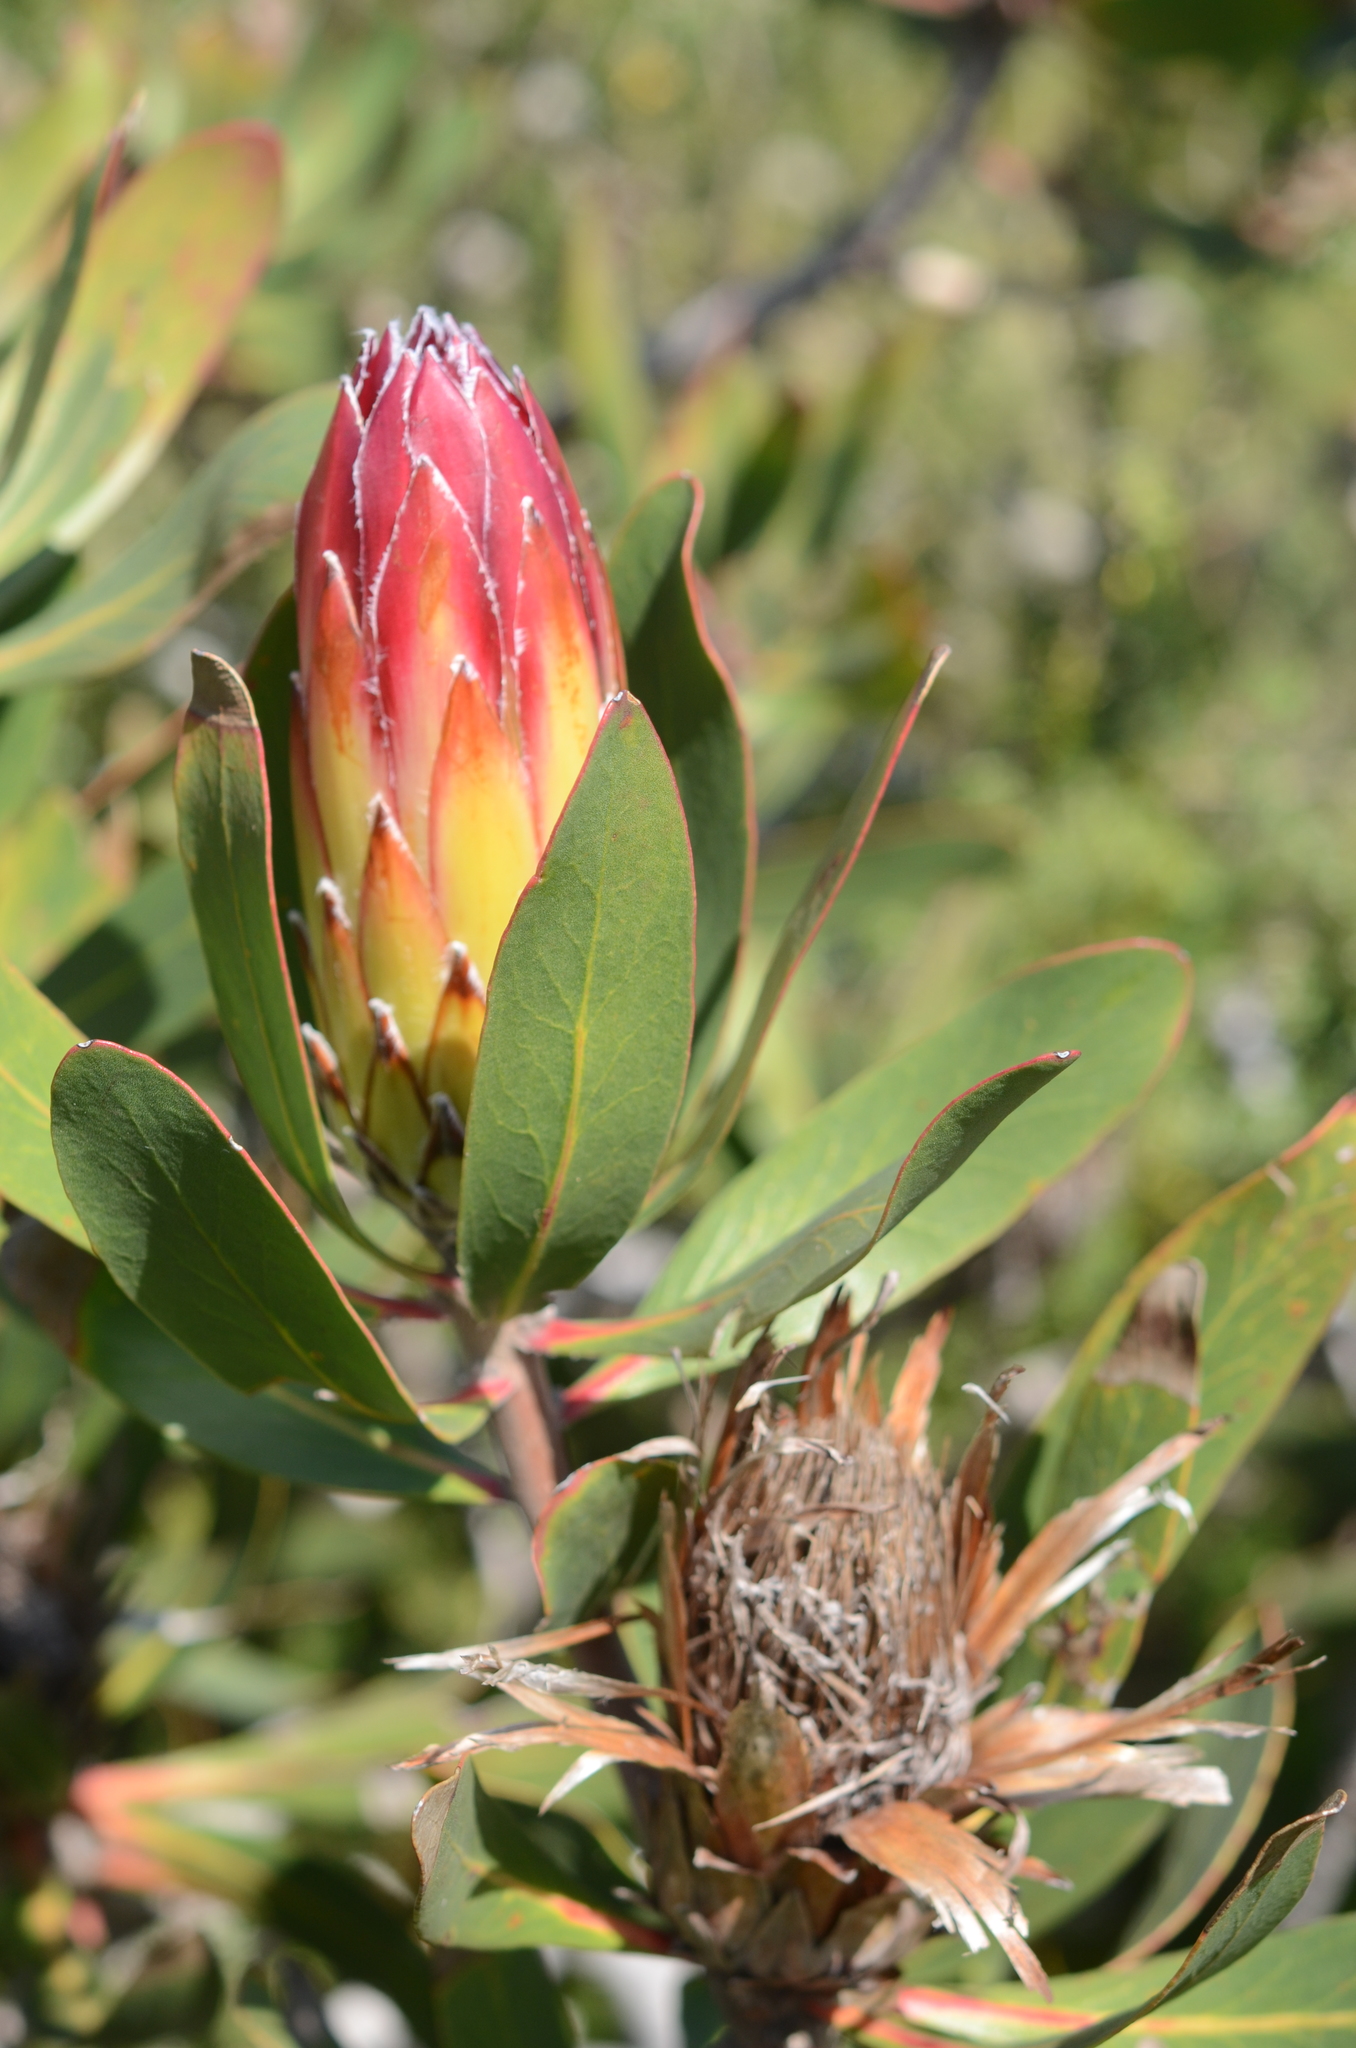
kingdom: Plantae
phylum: Tracheophyta
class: Magnoliopsida
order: Proteales
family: Proteaceae
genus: Protea
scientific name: Protea obtusifolia
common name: Bredasdorp sugarbush
